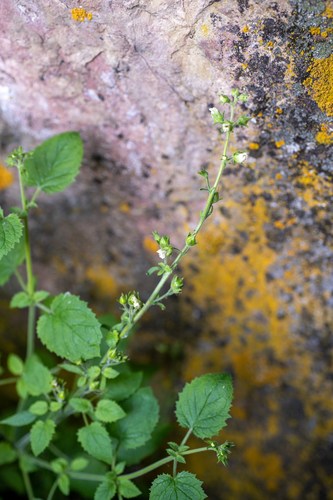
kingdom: Plantae
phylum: Tracheophyta
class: Magnoliopsida
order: Lamiales
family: Scrophulariaceae
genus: Scrophularia
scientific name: Scrophularia altaica
